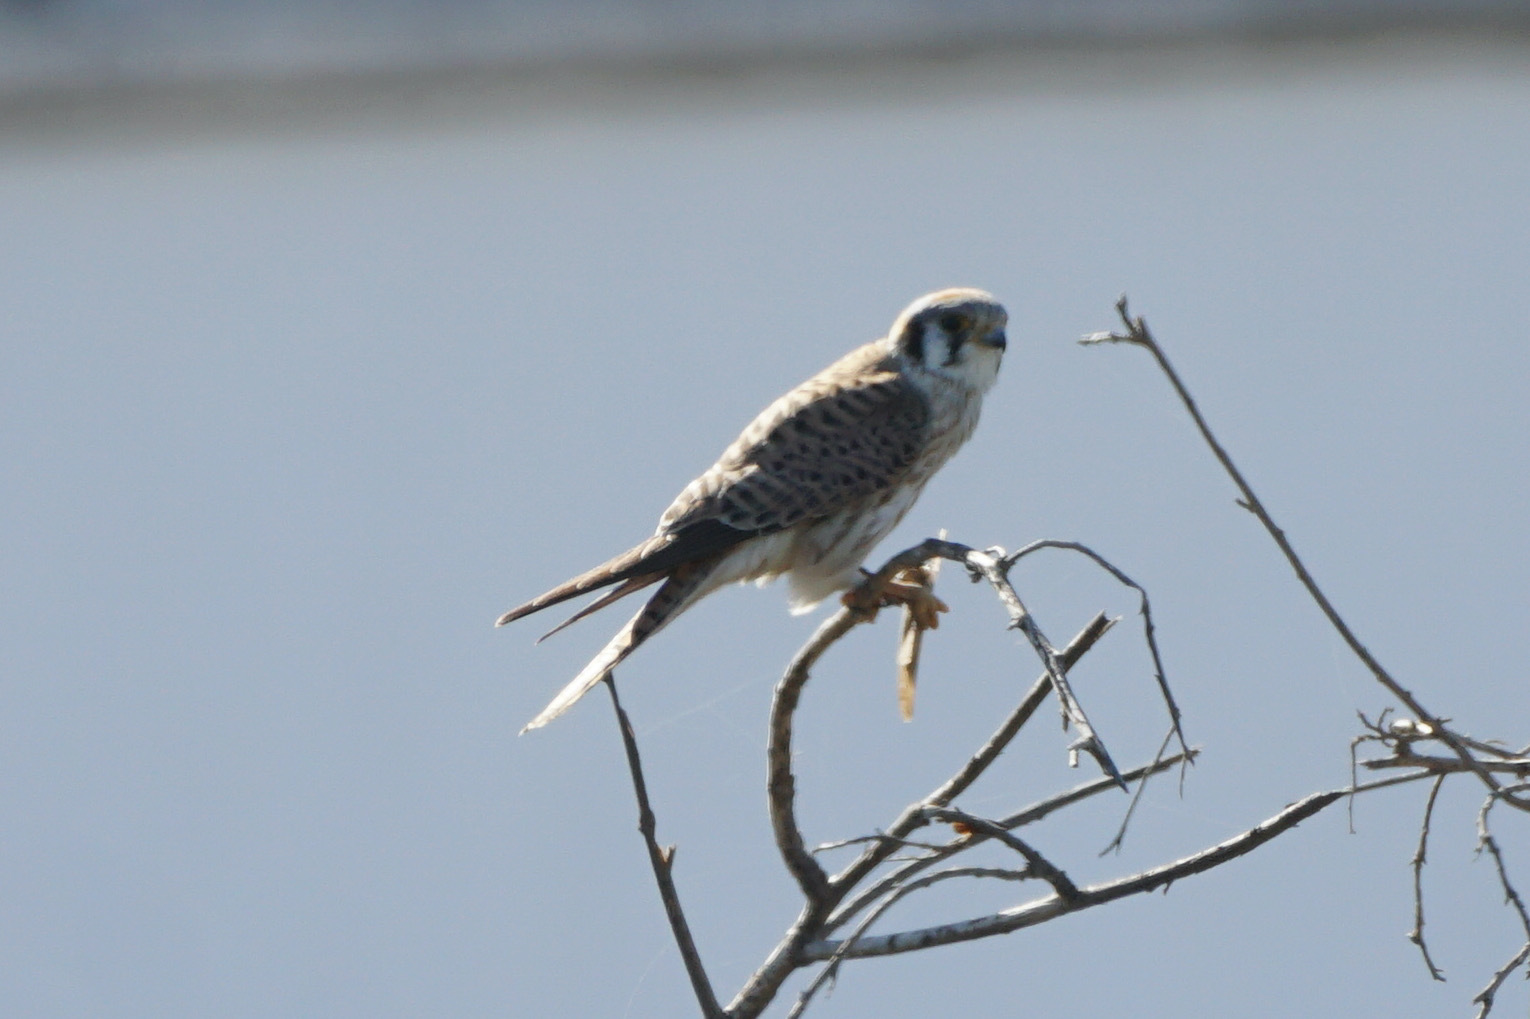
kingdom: Animalia
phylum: Chordata
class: Aves
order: Falconiformes
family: Falconidae
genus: Falco
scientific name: Falco sparverius
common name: American kestrel
